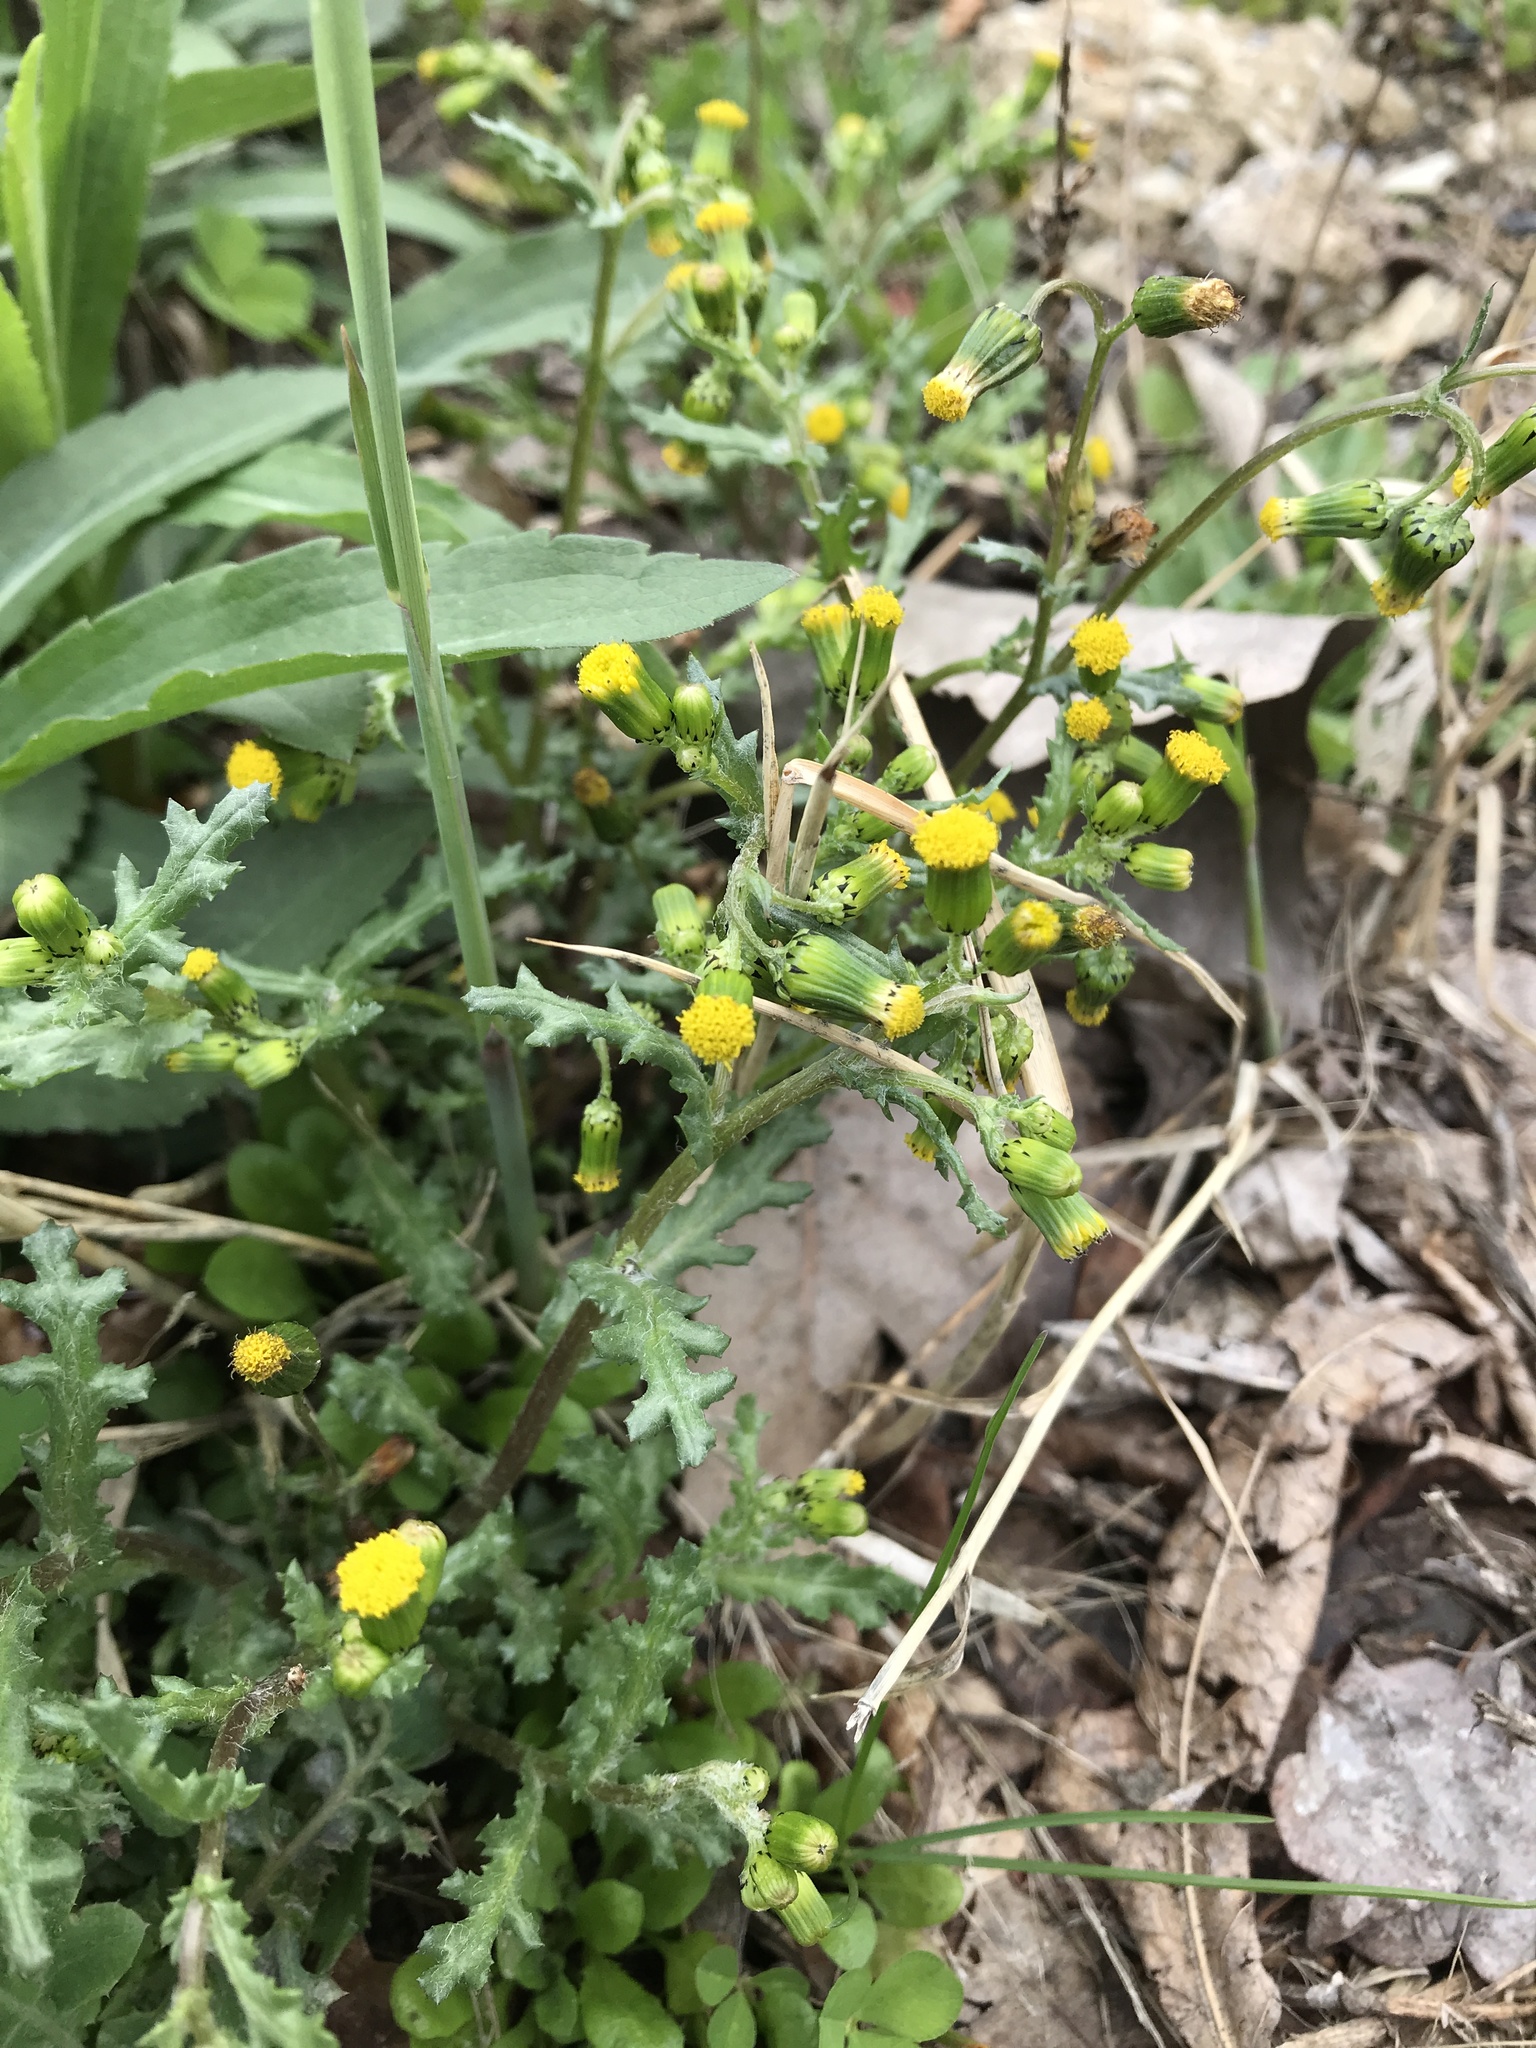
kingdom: Plantae
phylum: Tracheophyta
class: Magnoliopsida
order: Asterales
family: Asteraceae
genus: Senecio
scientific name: Senecio vulgaris
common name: Old-man-in-the-spring
